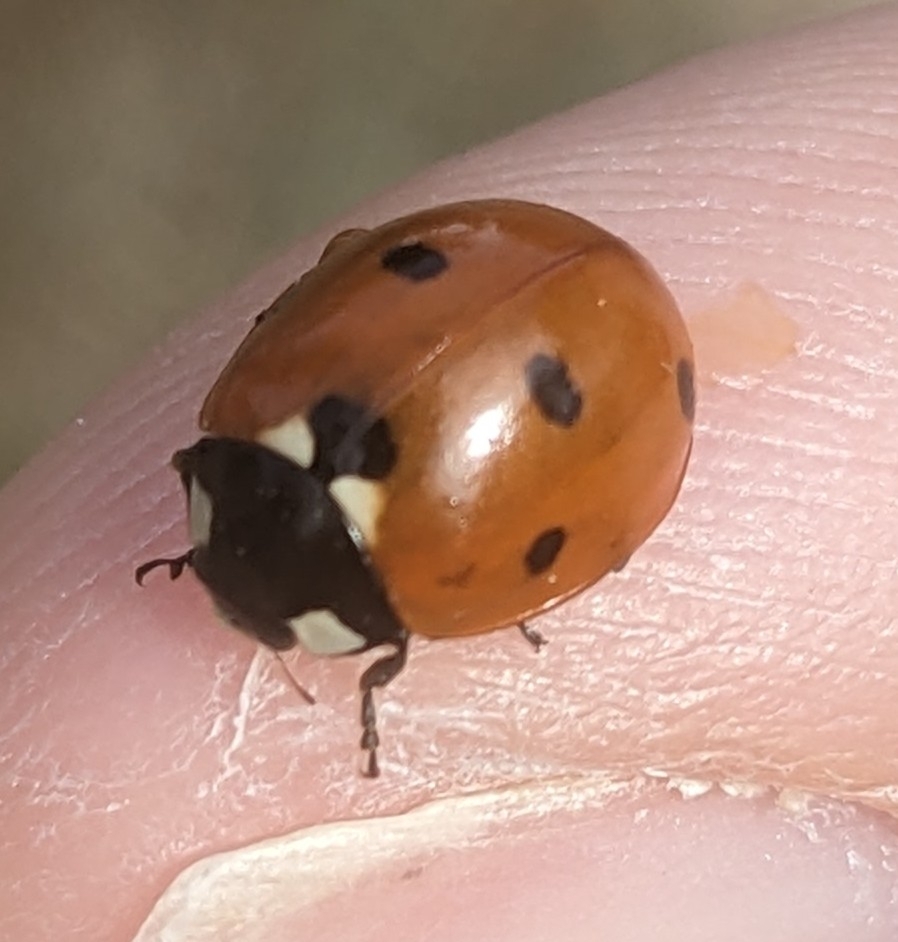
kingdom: Animalia
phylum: Arthropoda
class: Insecta
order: Coleoptera
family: Coccinellidae
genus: Coccinella
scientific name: Coccinella septempunctata
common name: Sevenspotted lady beetle
